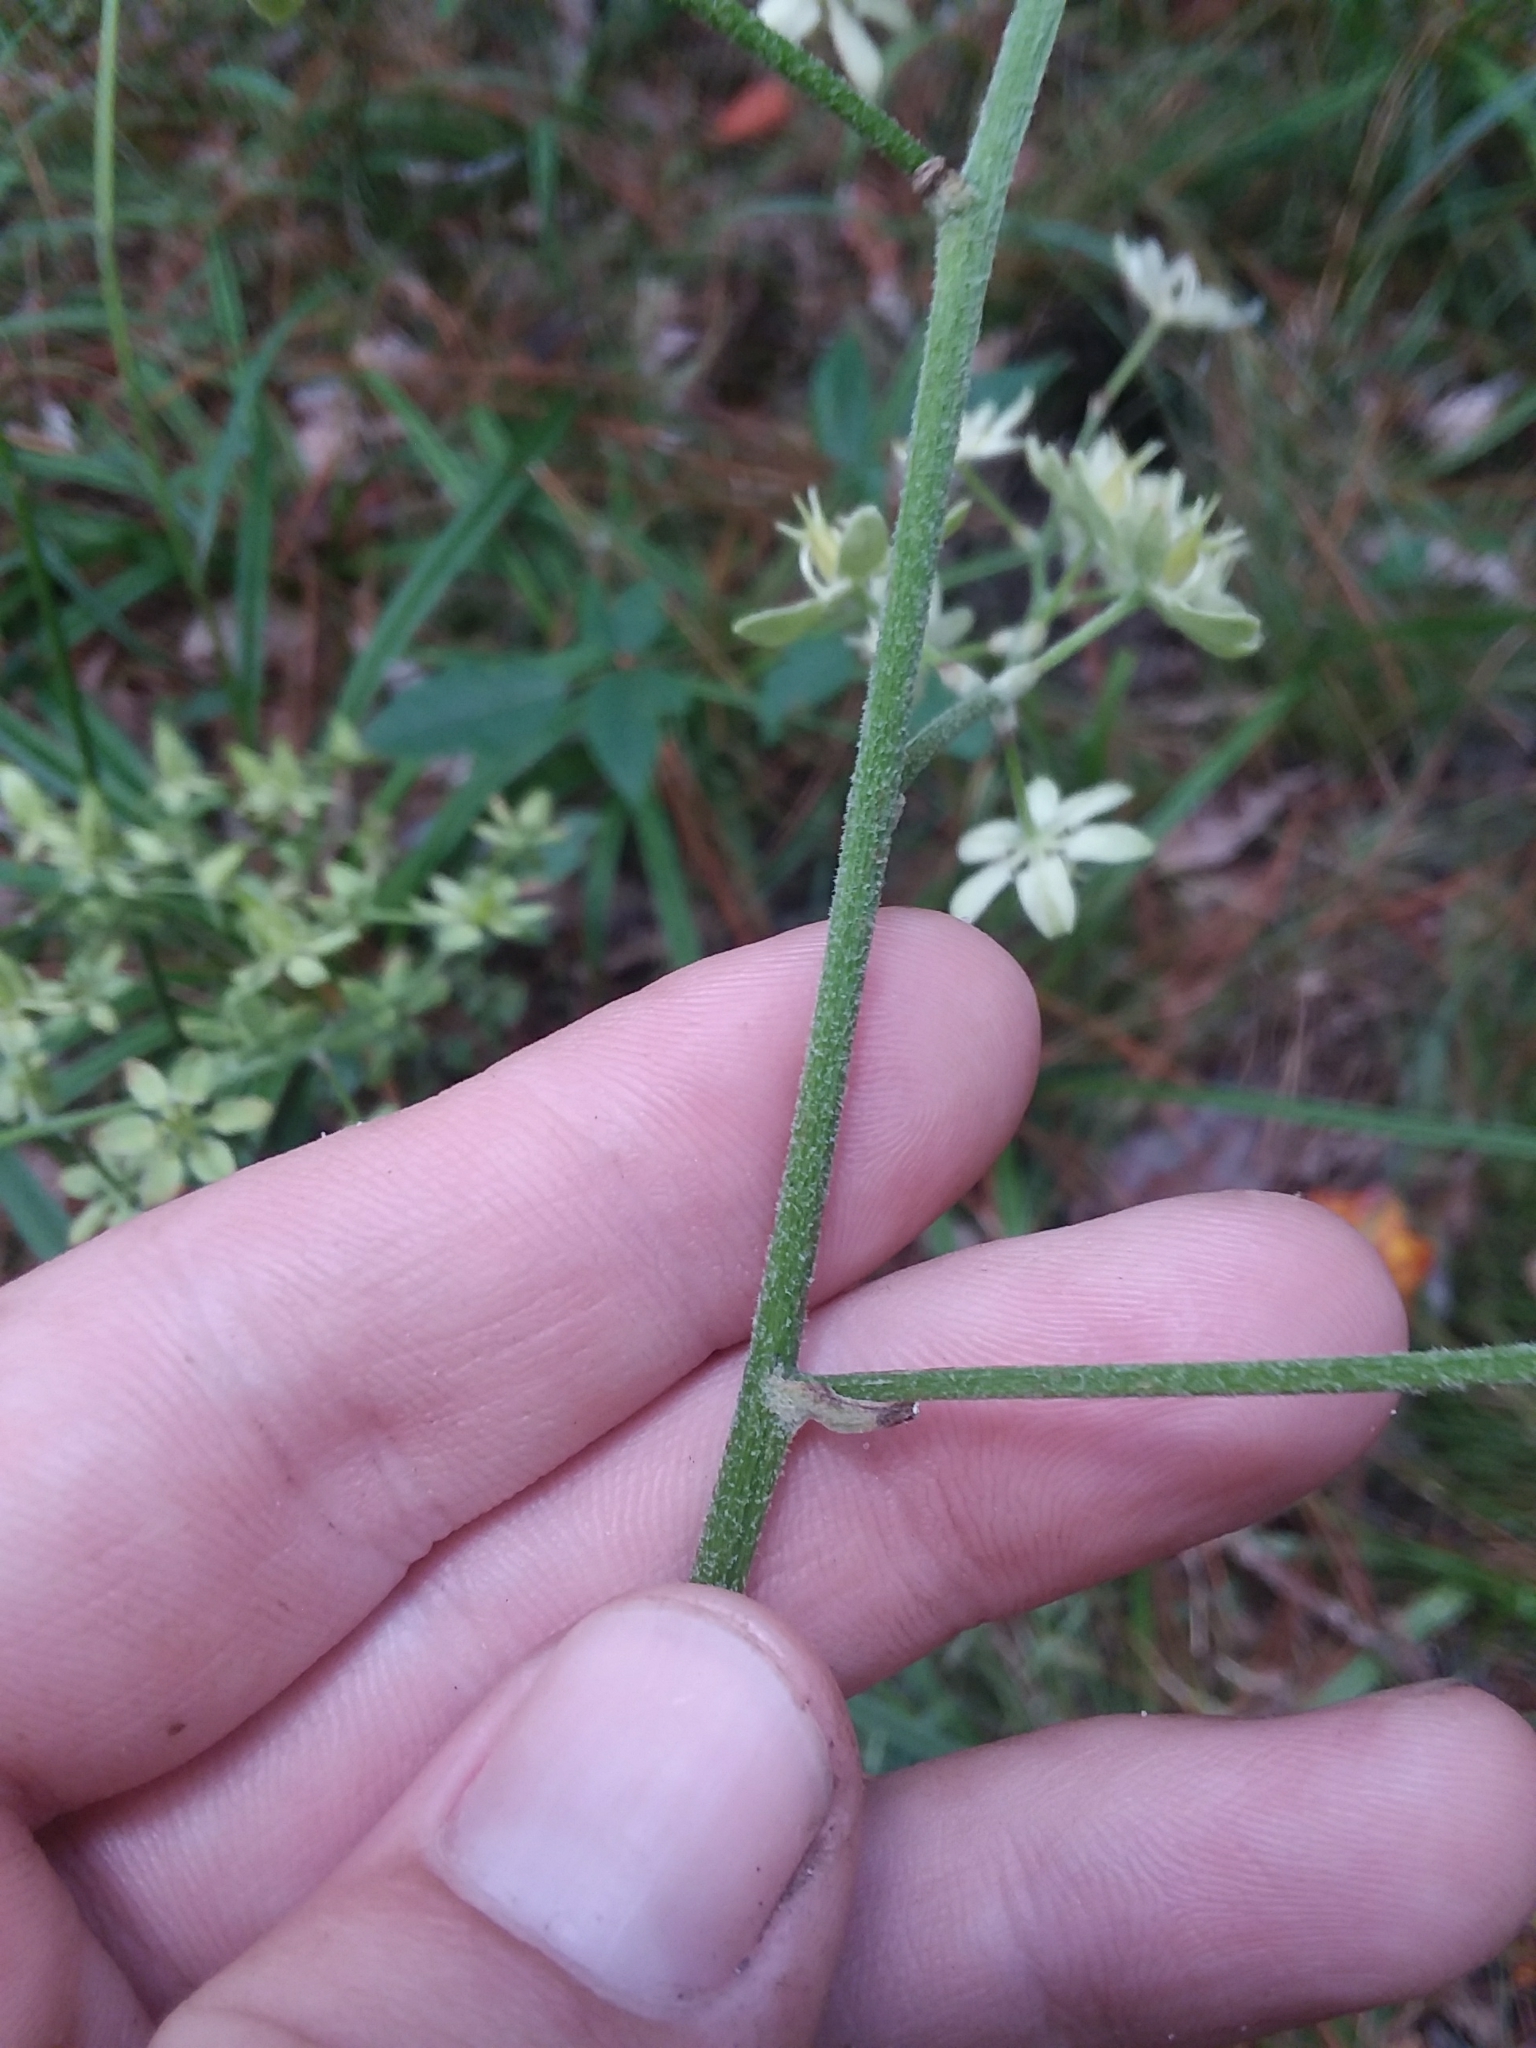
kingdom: Plantae
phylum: Tracheophyta
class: Liliopsida
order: Liliales
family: Melanthiaceae
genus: Melanthium
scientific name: Melanthium virginicum
